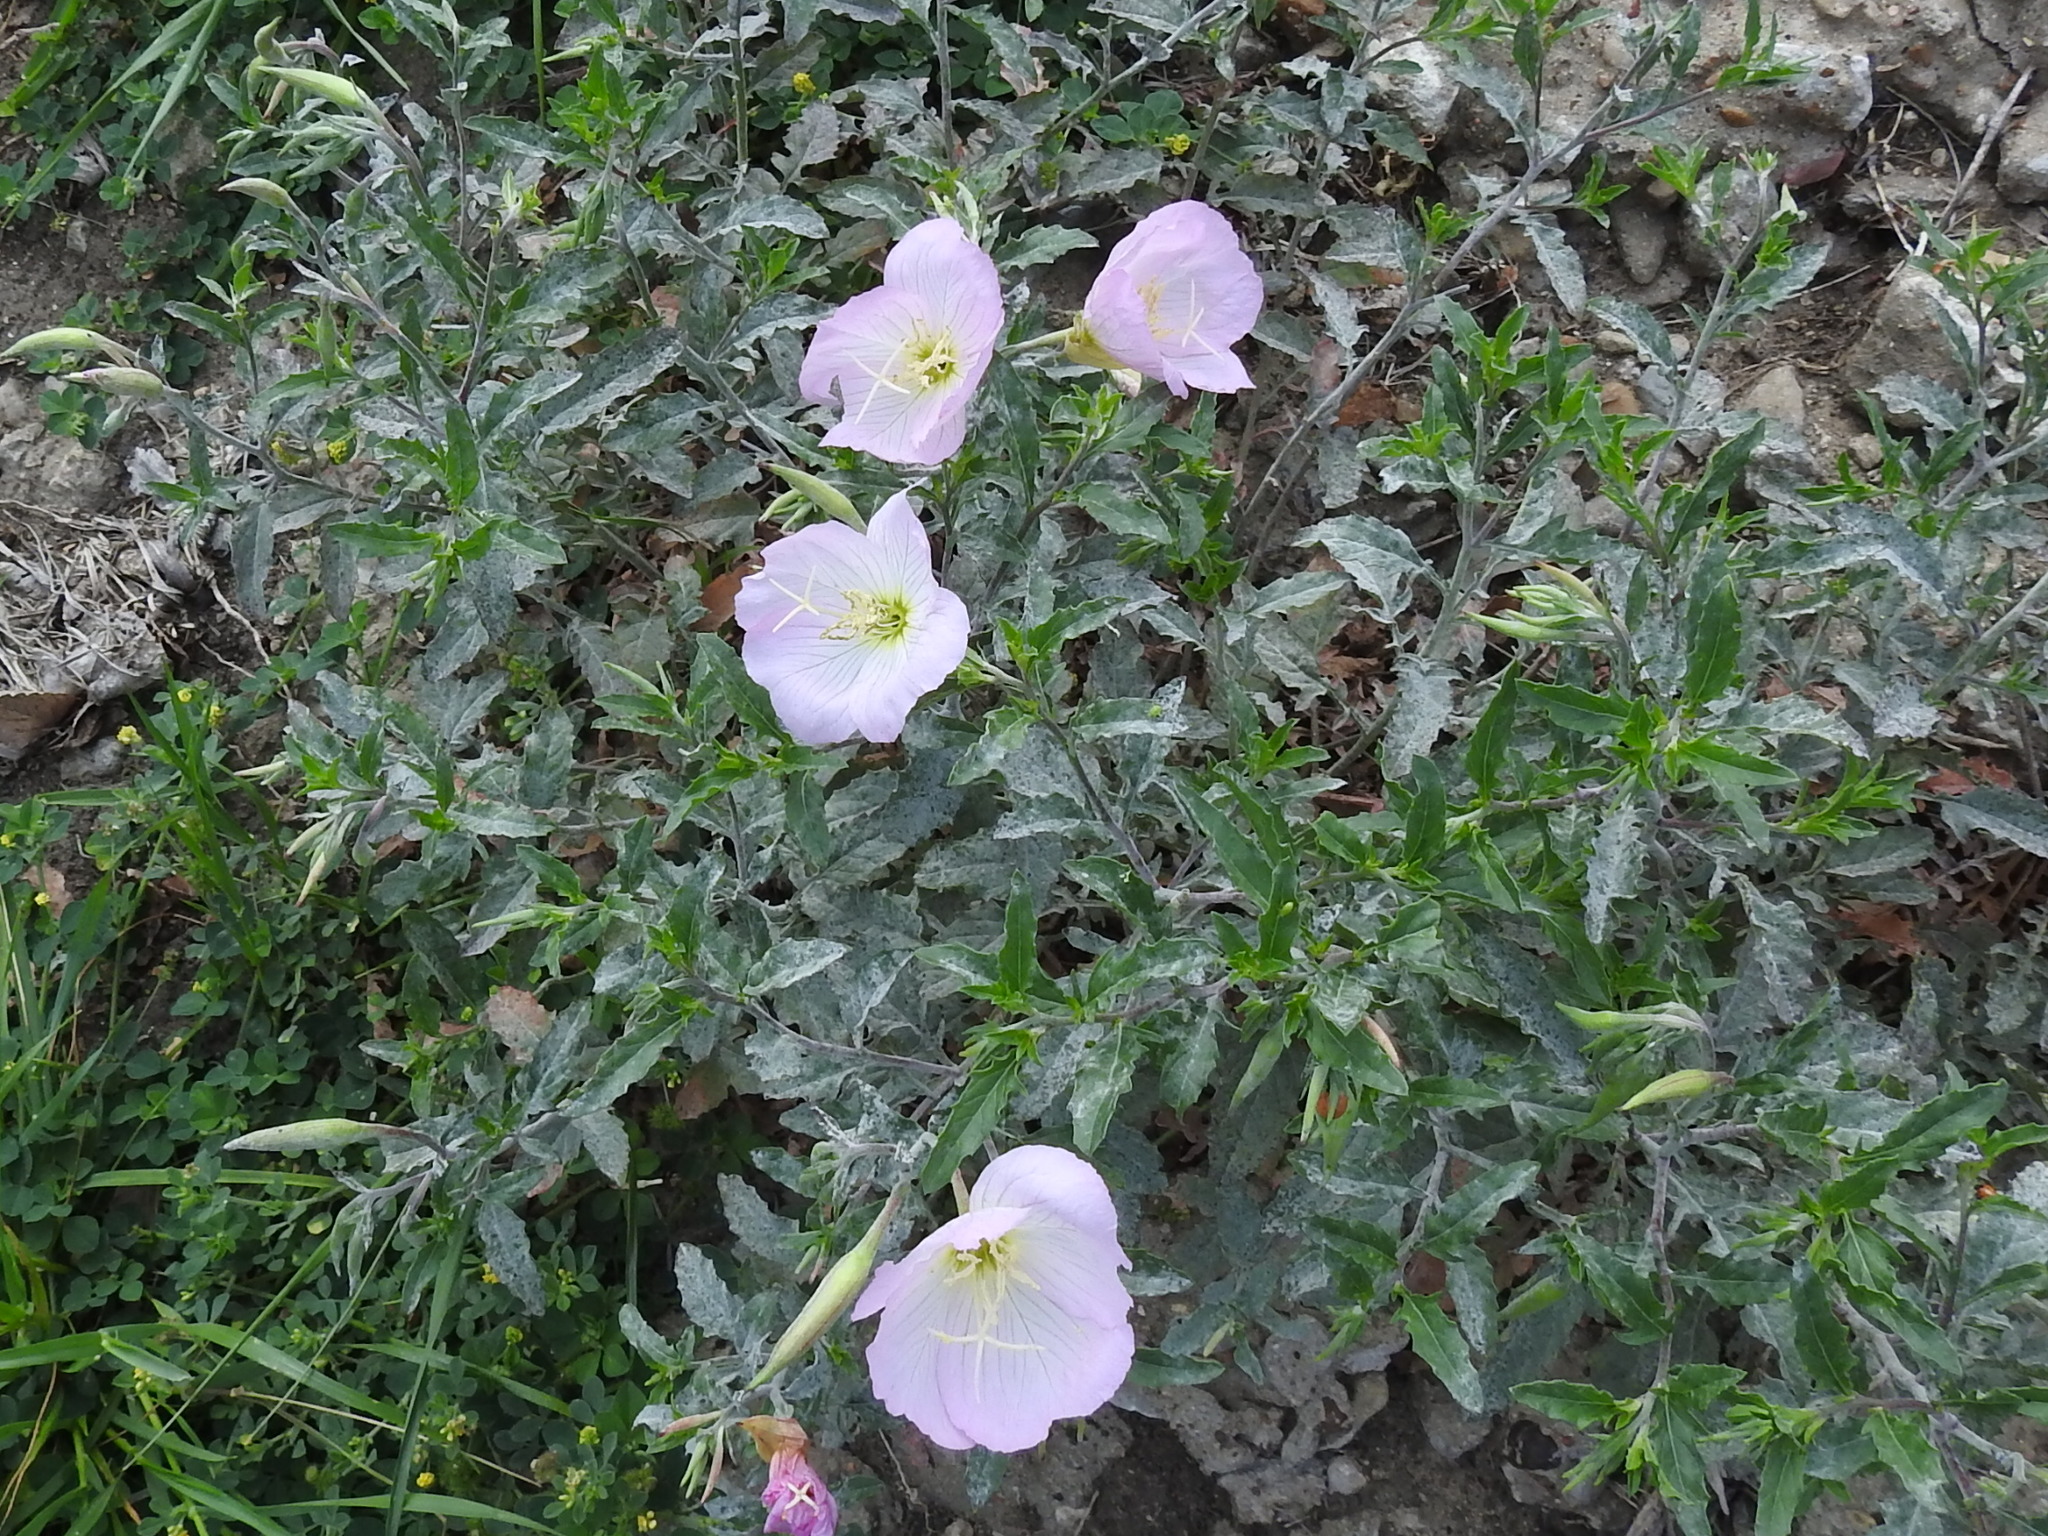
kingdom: Plantae
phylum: Tracheophyta
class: Magnoliopsida
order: Myrtales
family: Onagraceae
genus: Oenothera
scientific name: Oenothera speciosa
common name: White evening-primrose
